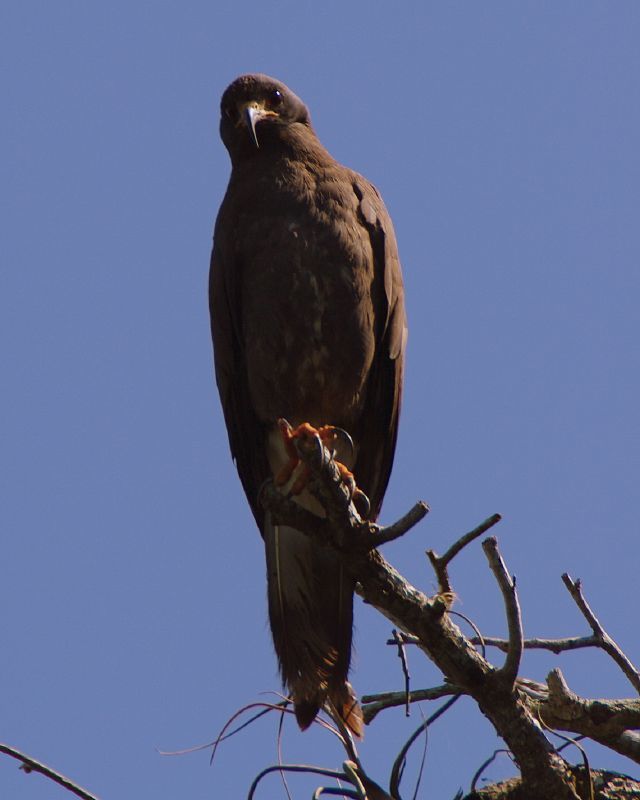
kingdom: Animalia
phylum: Chordata
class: Aves
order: Accipitriformes
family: Accipitridae
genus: Rostrhamus
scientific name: Rostrhamus sociabilis
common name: Snail kite
